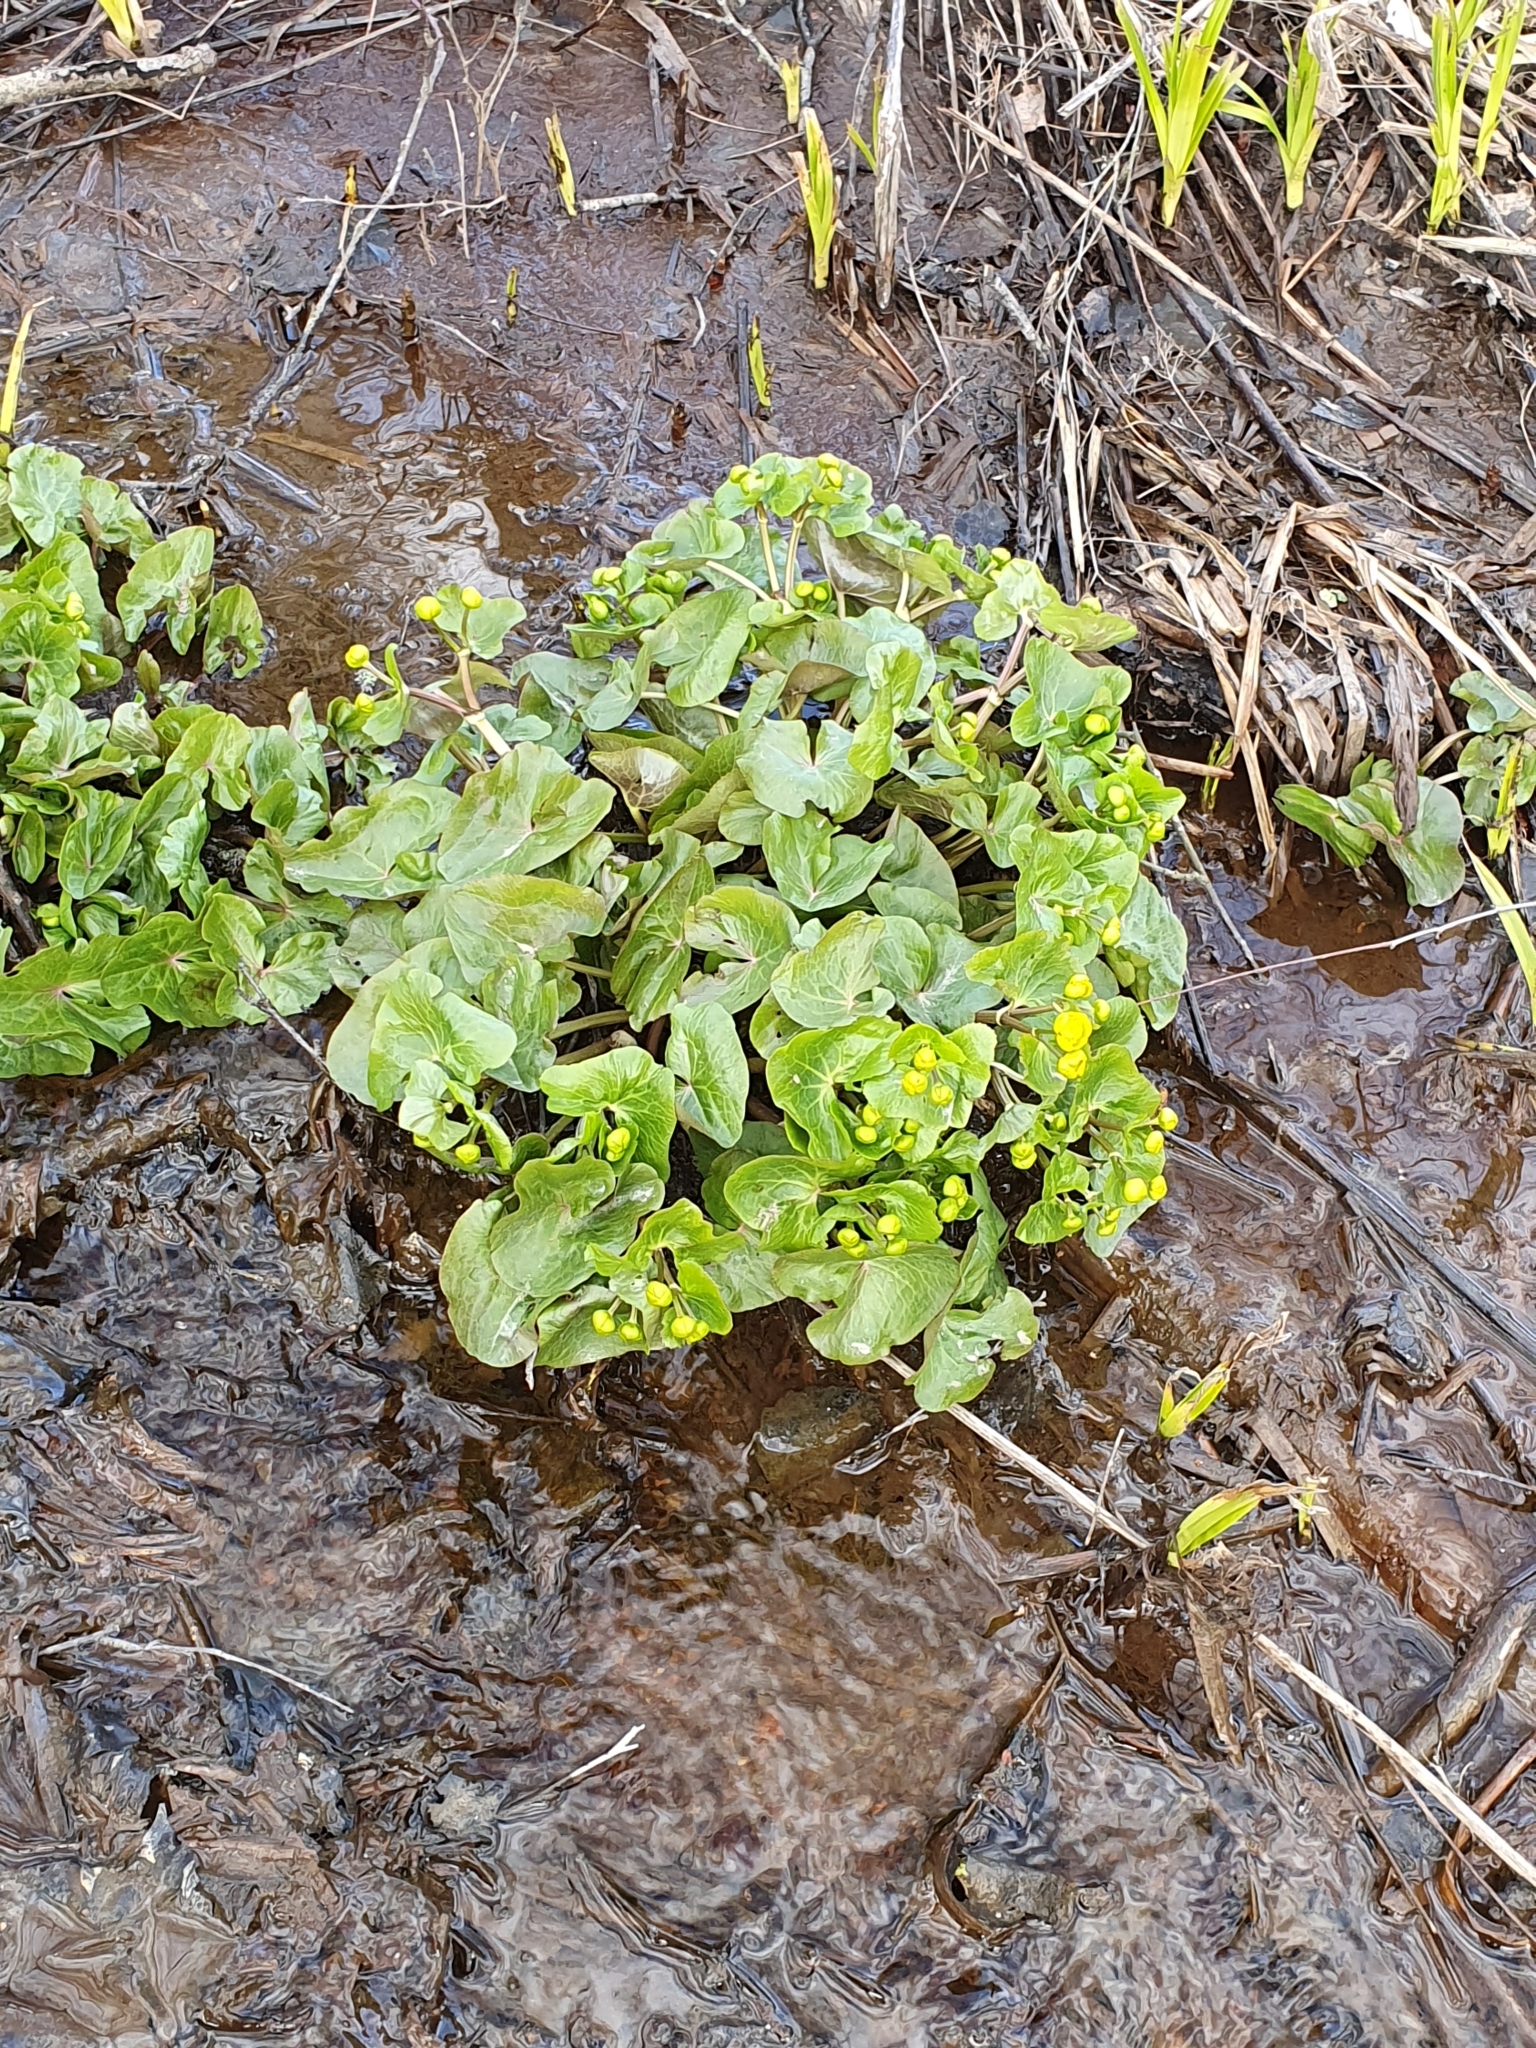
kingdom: Plantae
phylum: Tracheophyta
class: Magnoliopsida
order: Ranunculales
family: Ranunculaceae
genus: Caltha
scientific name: Caltha palustris
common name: Marsh marigold
